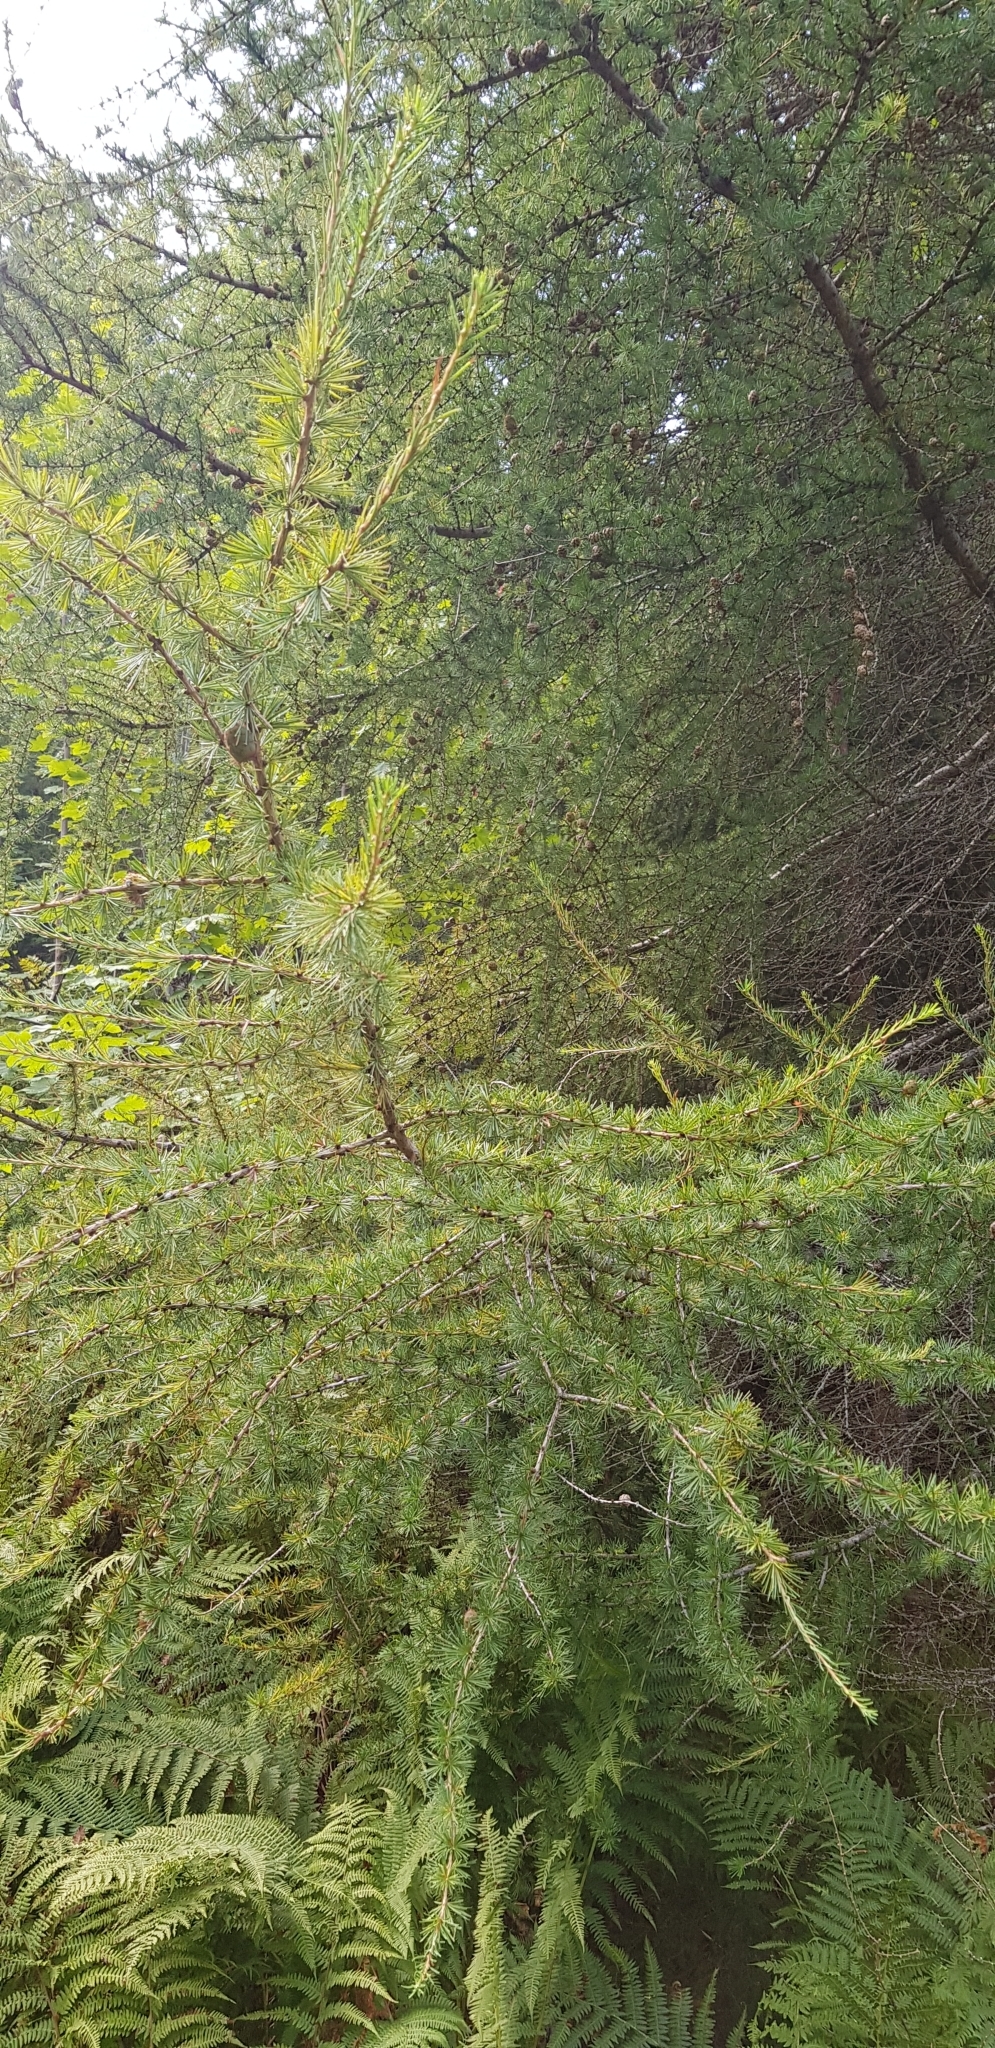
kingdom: Plantae
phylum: Tracheophyta
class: Pinopsida
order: Pinales
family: Pinaceae
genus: Larix
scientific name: Larix decidua
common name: European larch
